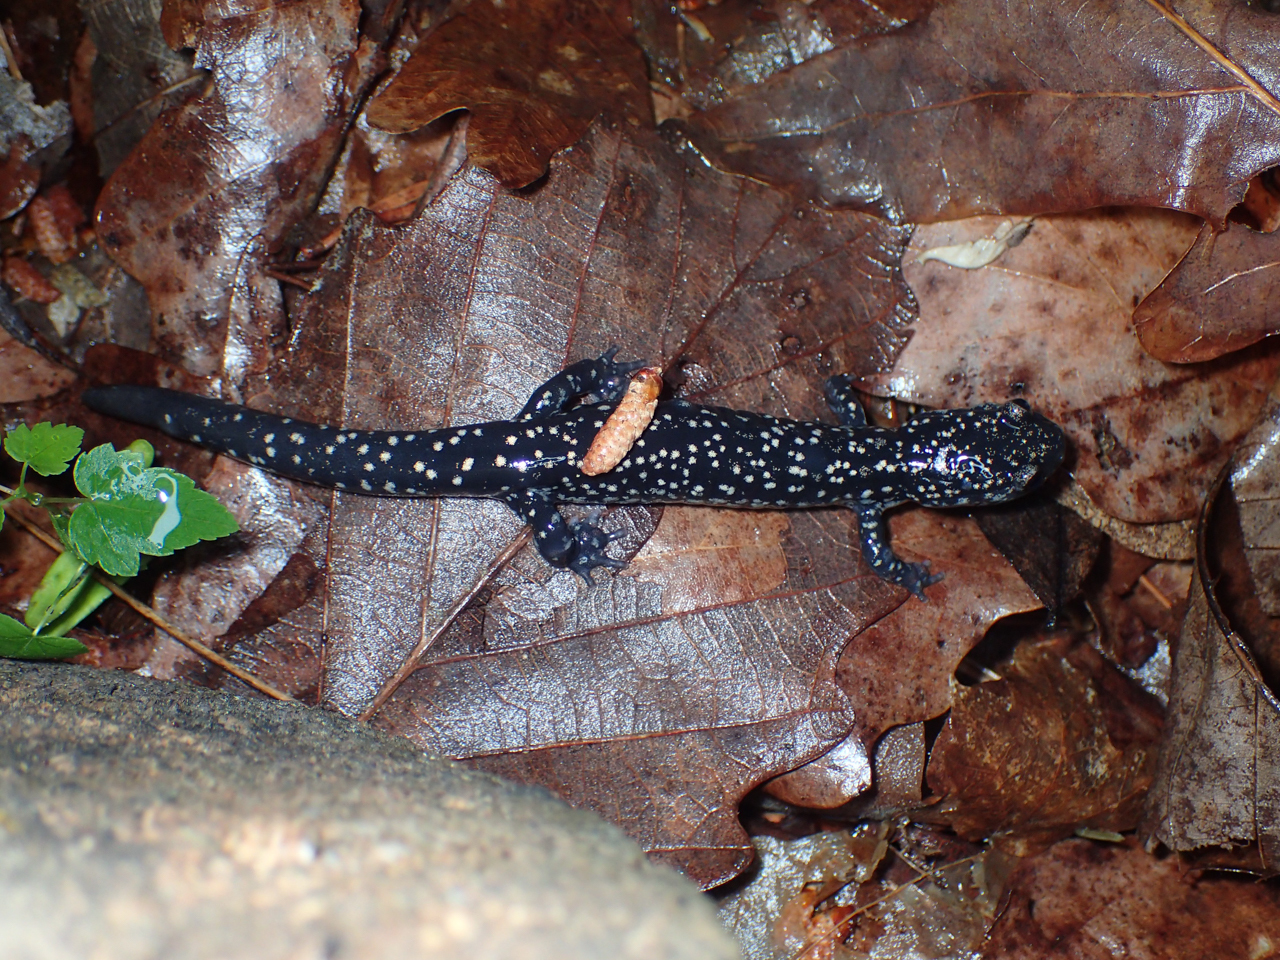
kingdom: Animalia
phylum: Chordata
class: Amphibia
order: Caudata
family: Plethodontidae
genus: Plethodon
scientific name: Plethodon glutinosus
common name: Northern slimy salamander
